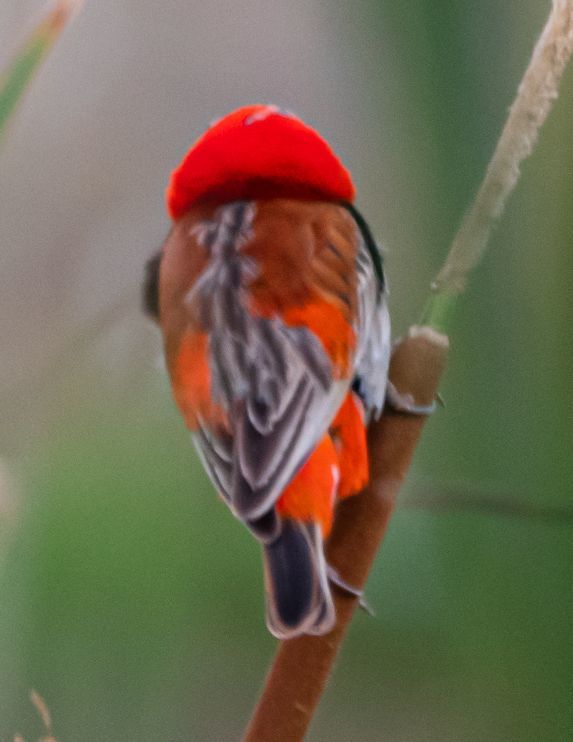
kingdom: Animalia
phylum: Chordata
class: Aves
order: Passeriformes
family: Ploceidae
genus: Euplectes
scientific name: Euplectes orix
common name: Southern red bishop
